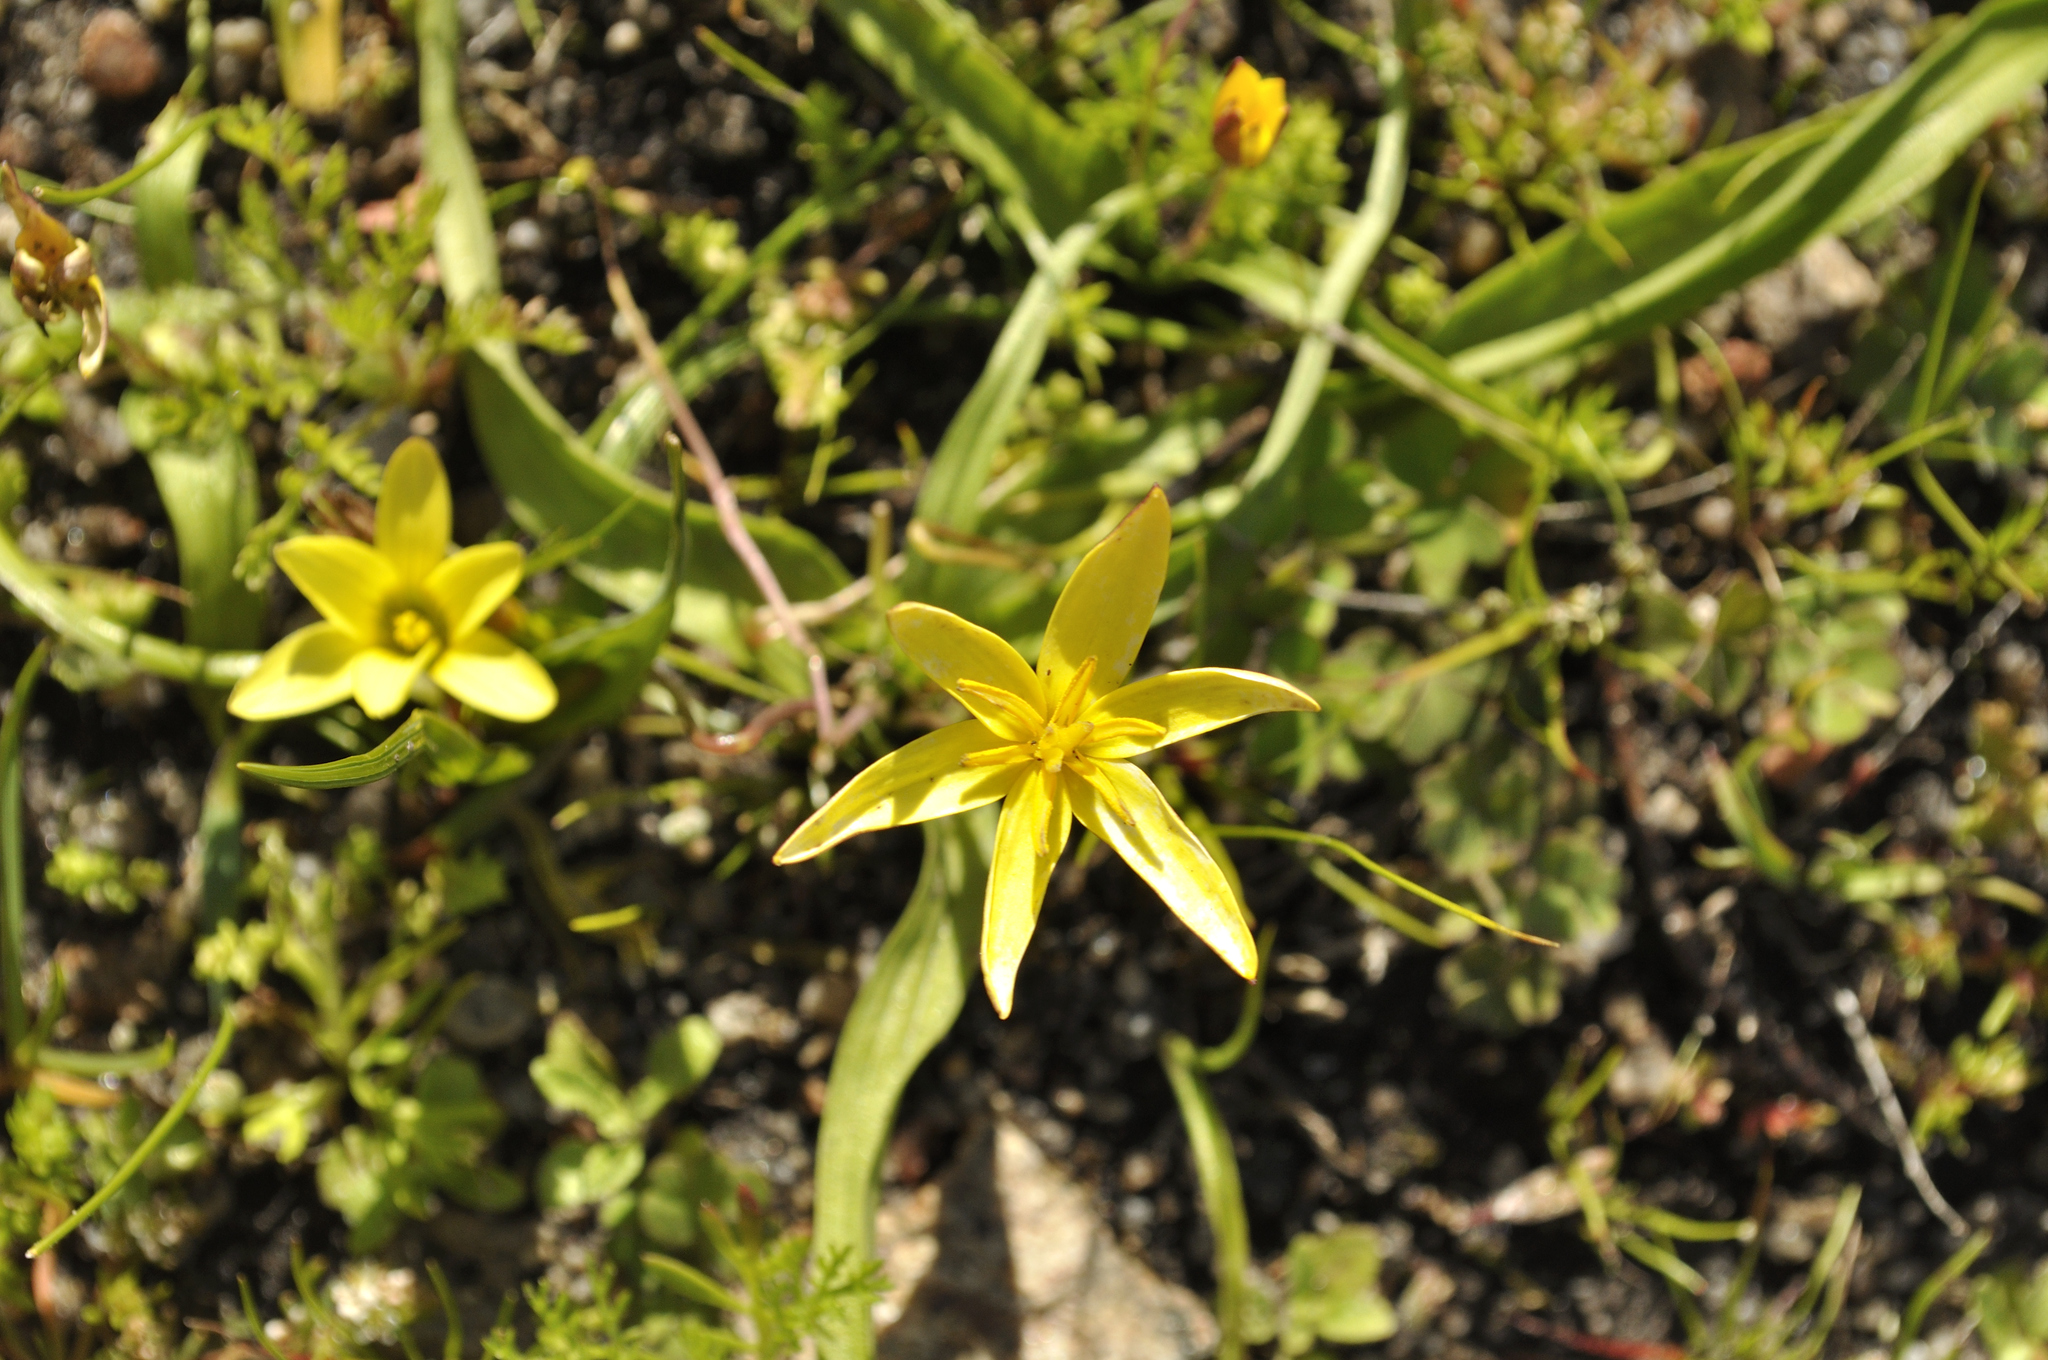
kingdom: Plantae
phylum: Tracheophyta
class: Liliopsida
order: Asparagales
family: Hypoxidaceae
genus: Pauridia
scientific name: Pauridia gracilipes
